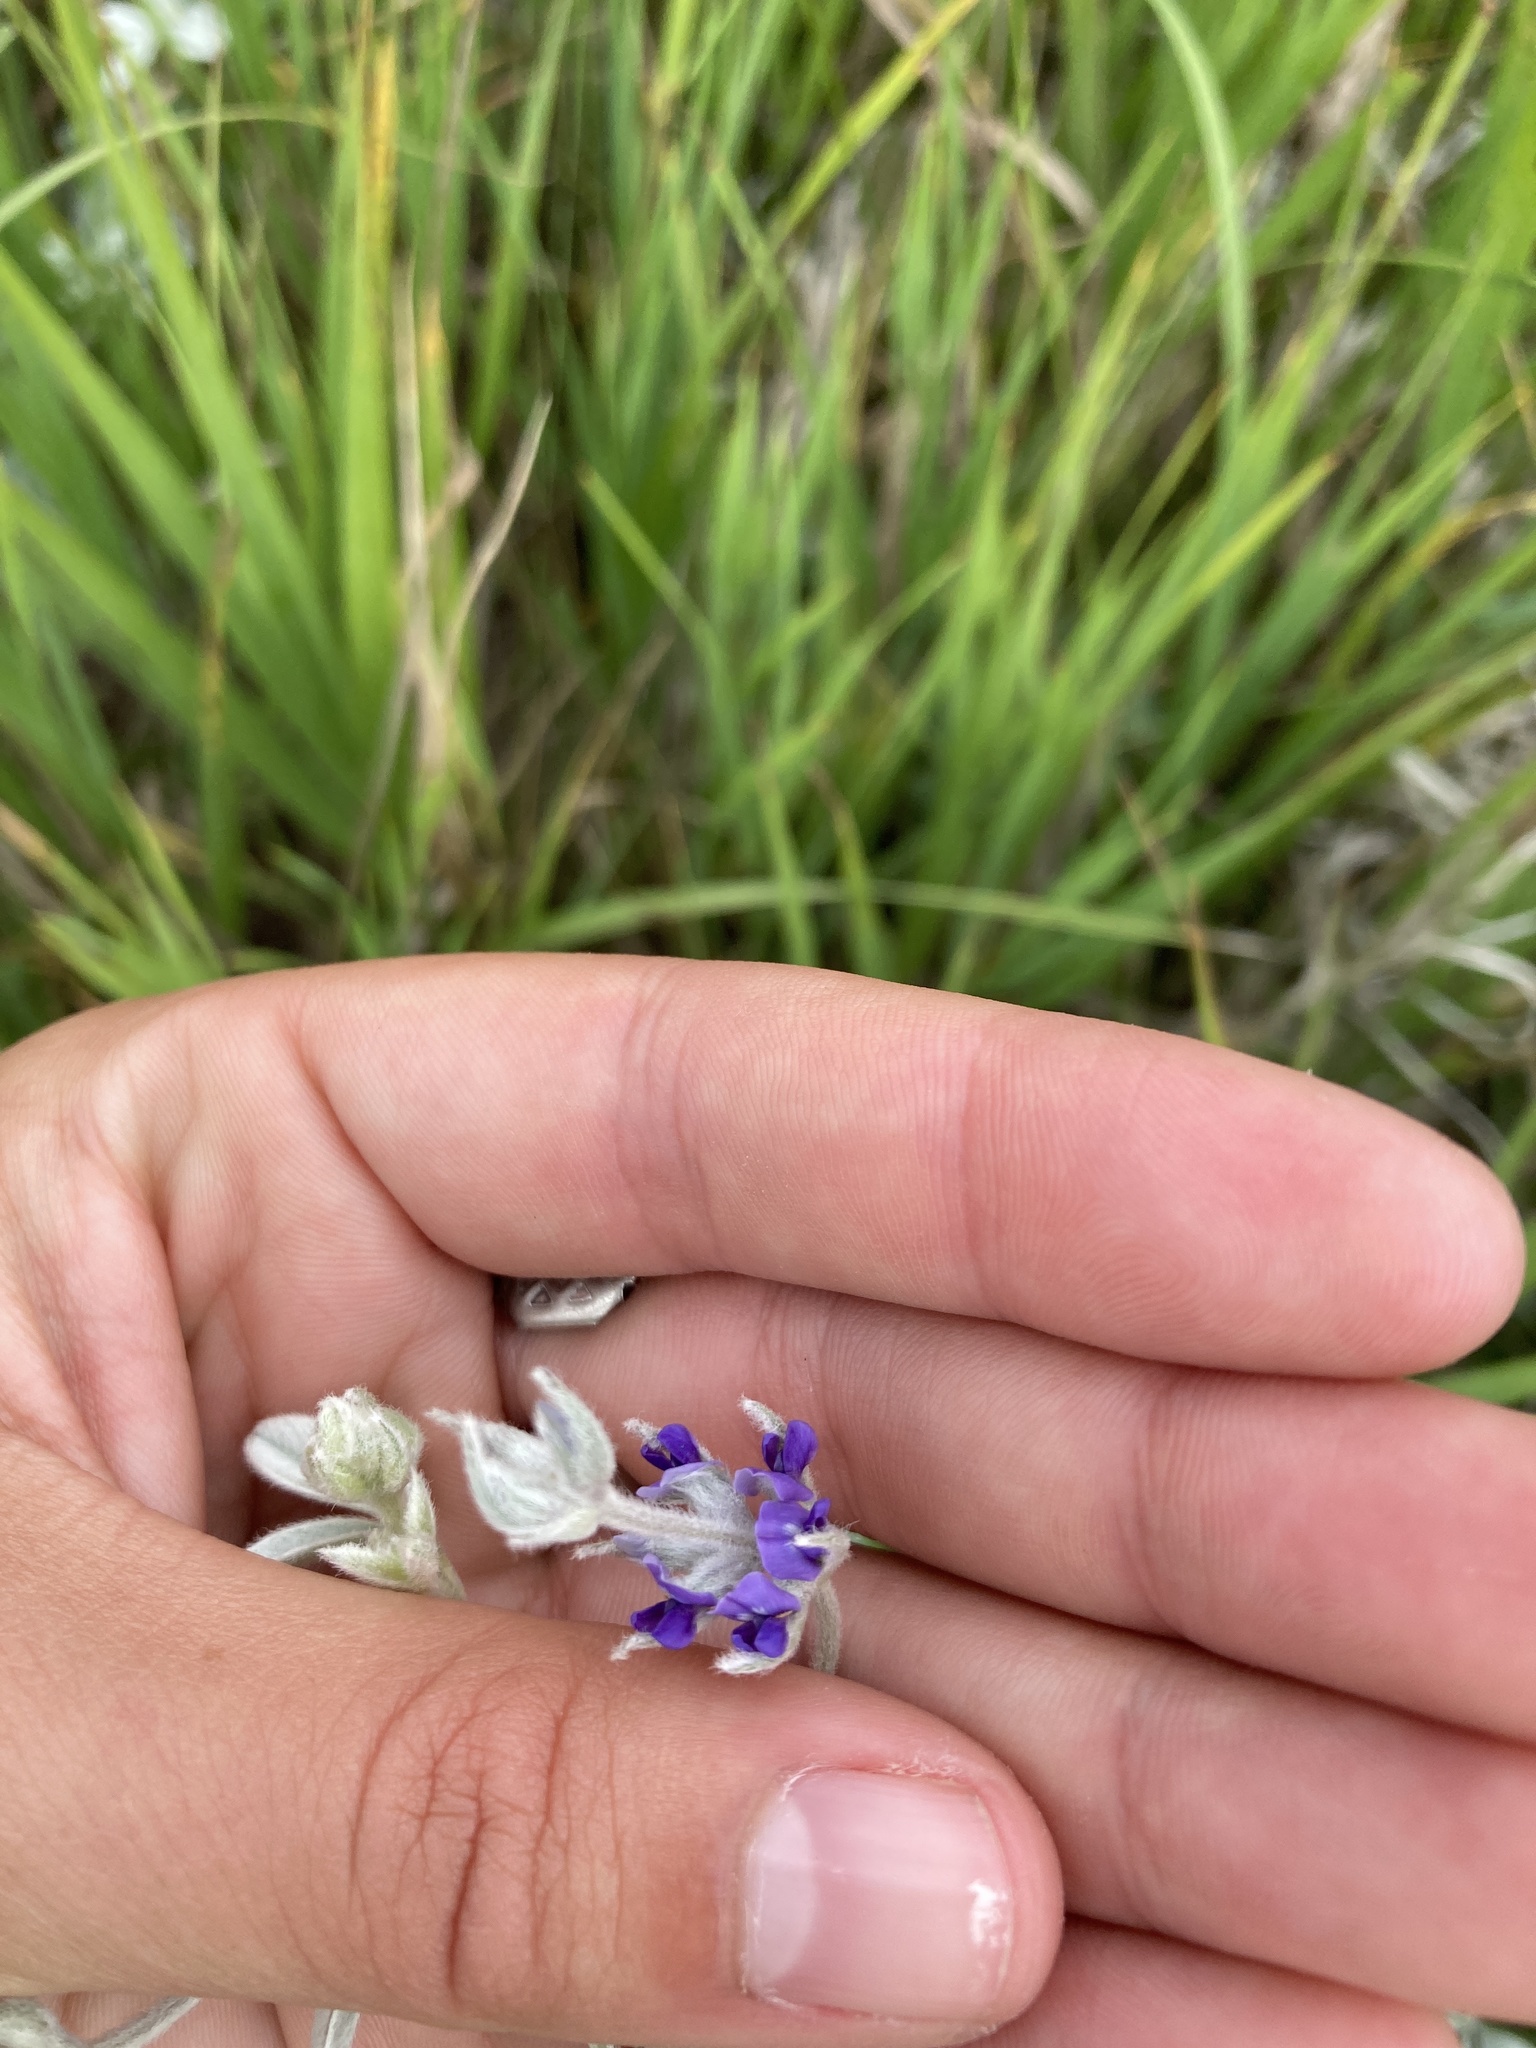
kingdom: Plantae
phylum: Tracheophyta
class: Magnoliopsida
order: Fabales
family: Fabaceae
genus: Pediomelum
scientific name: Pediomelum argophyllum
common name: Silver-leaved indian breadroot
